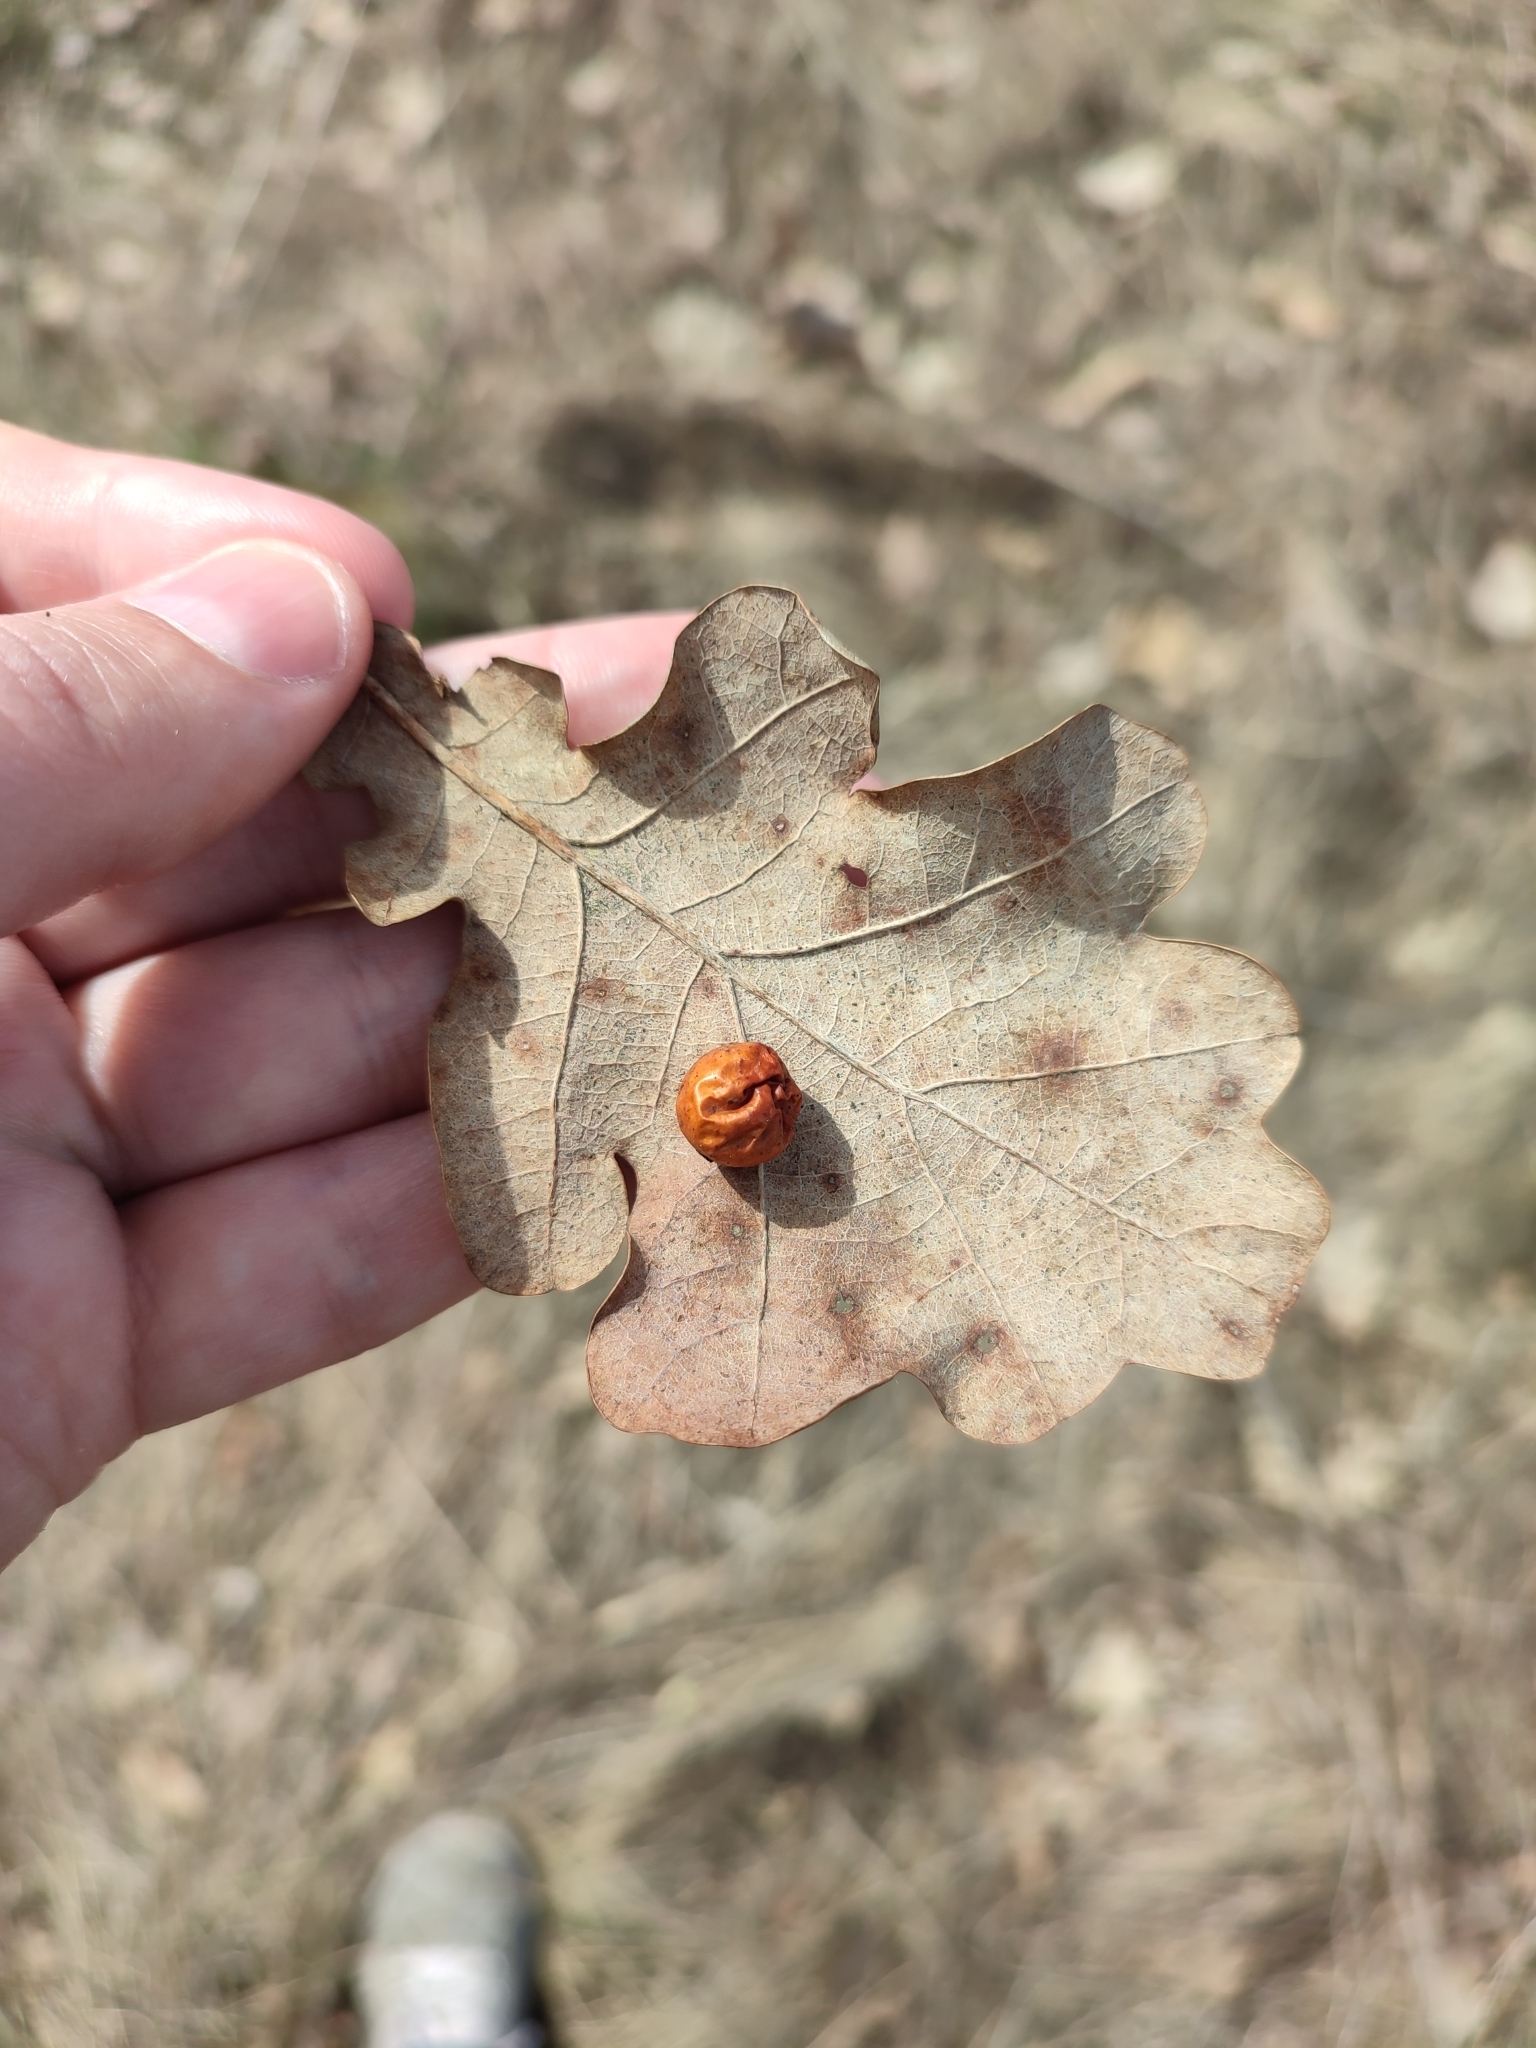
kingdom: Animalia
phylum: Arthropoda
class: Insecta
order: Hymenoptera
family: Cynipidae
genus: Cynips
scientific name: Cynips quercusfolii
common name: Cherry gall
